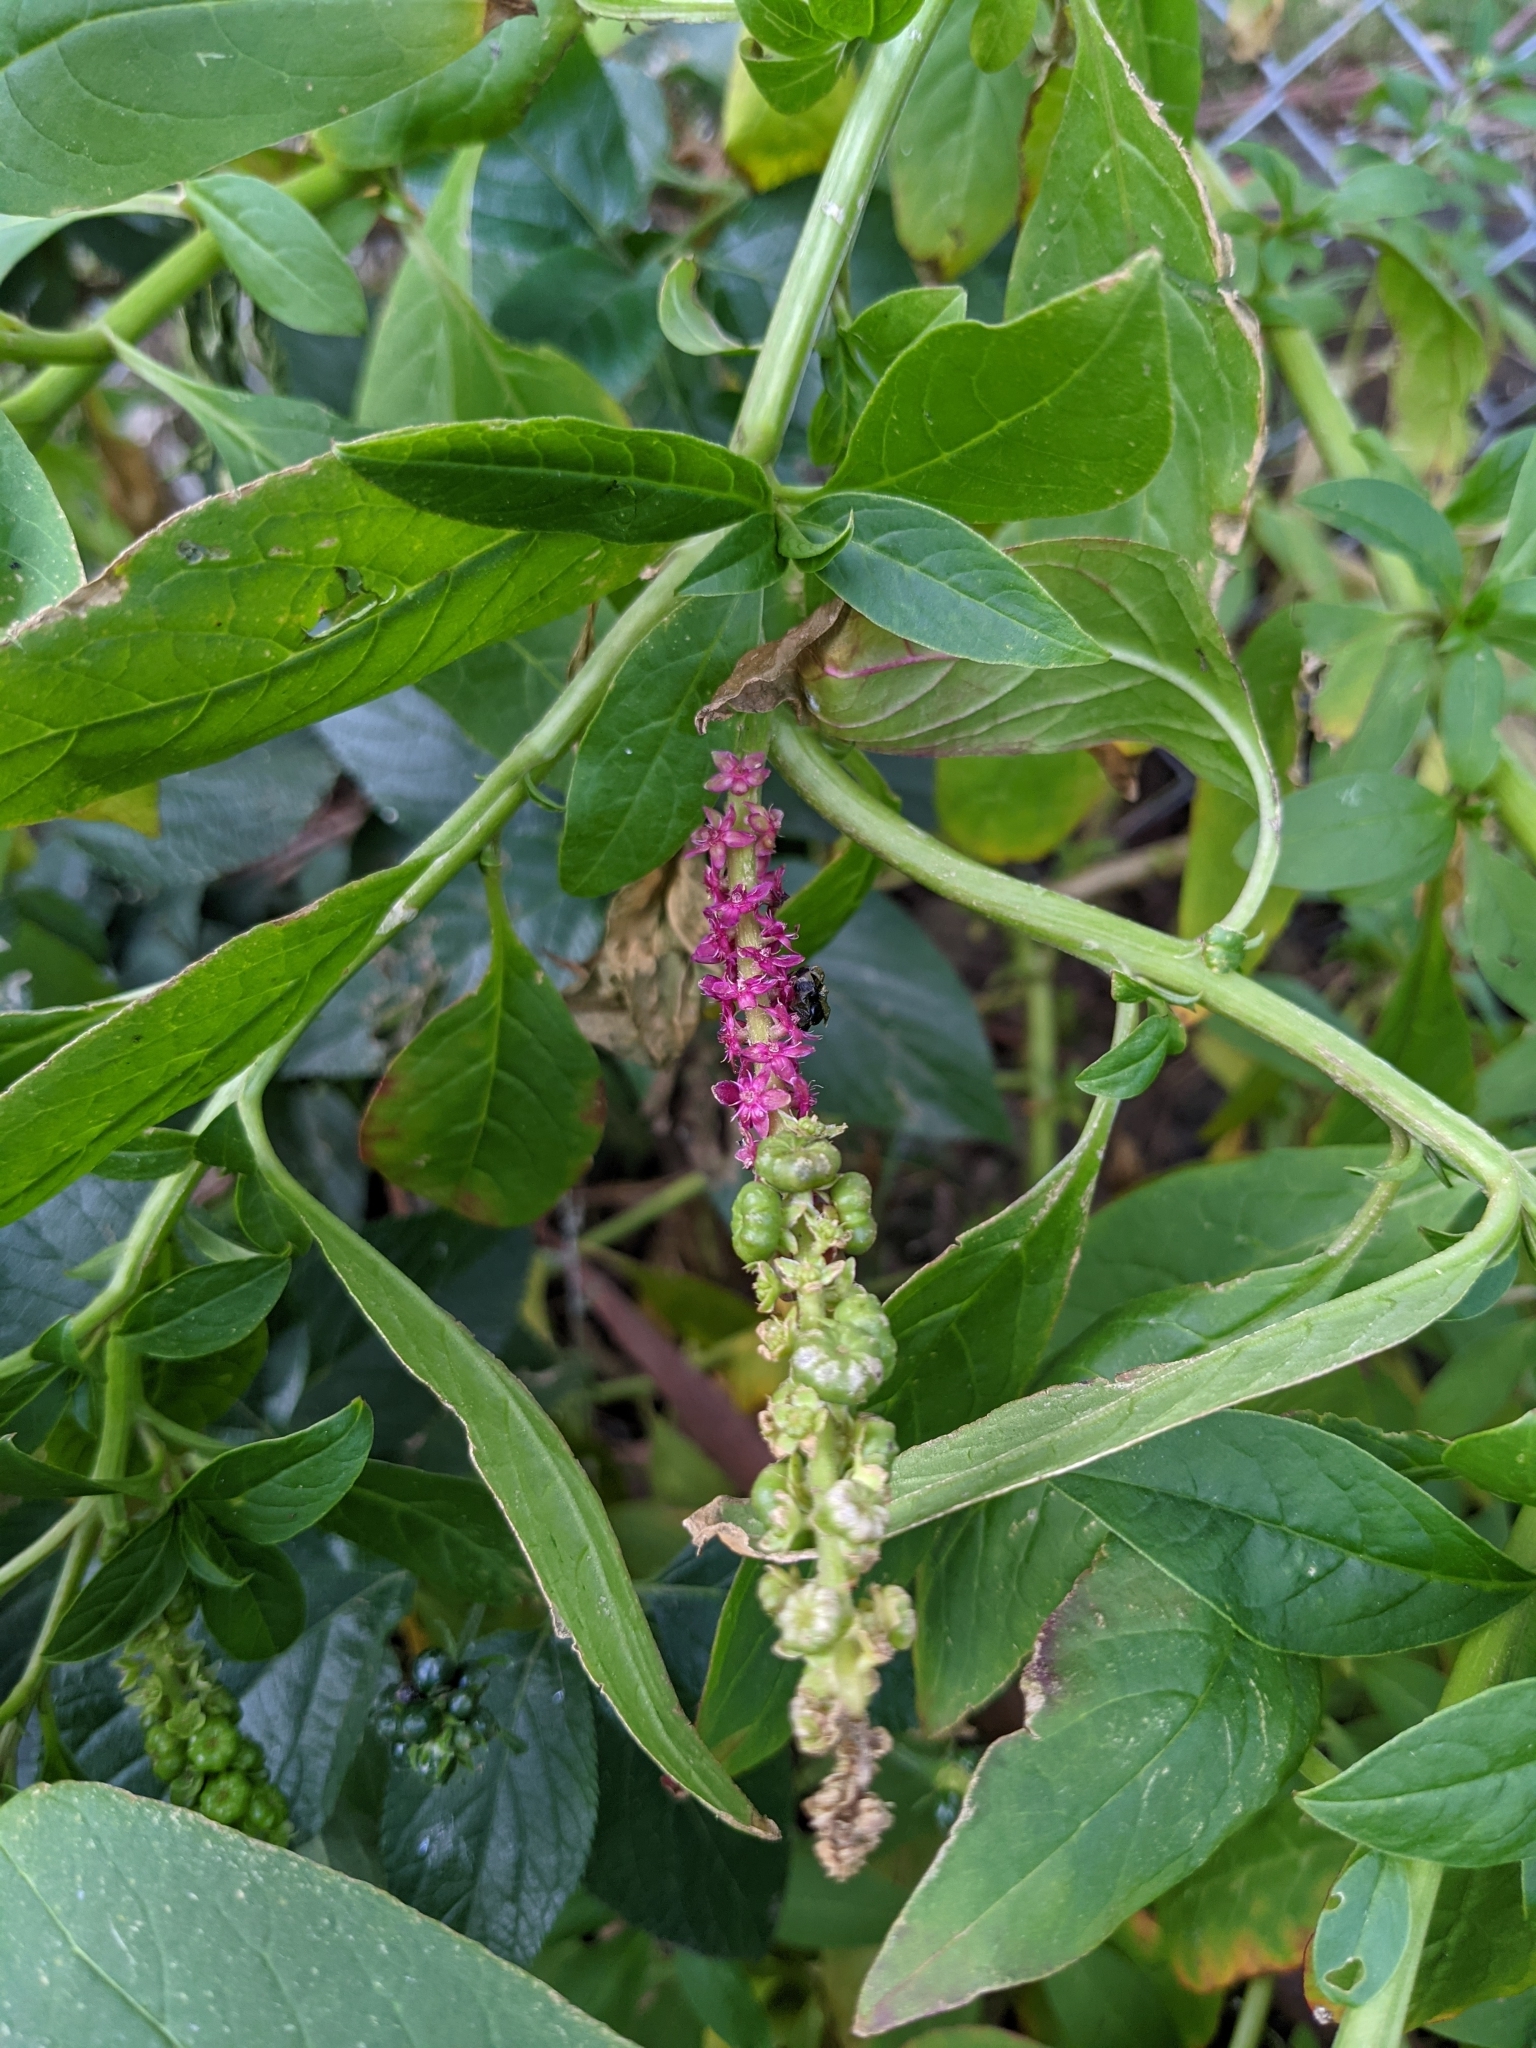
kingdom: Plantae
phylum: Tracheophyta
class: Magnoliopsida
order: Caryophyllales
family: Phytolaccaceae
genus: Phytolacca
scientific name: Phytolacca icosandra
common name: Button pokeweed
